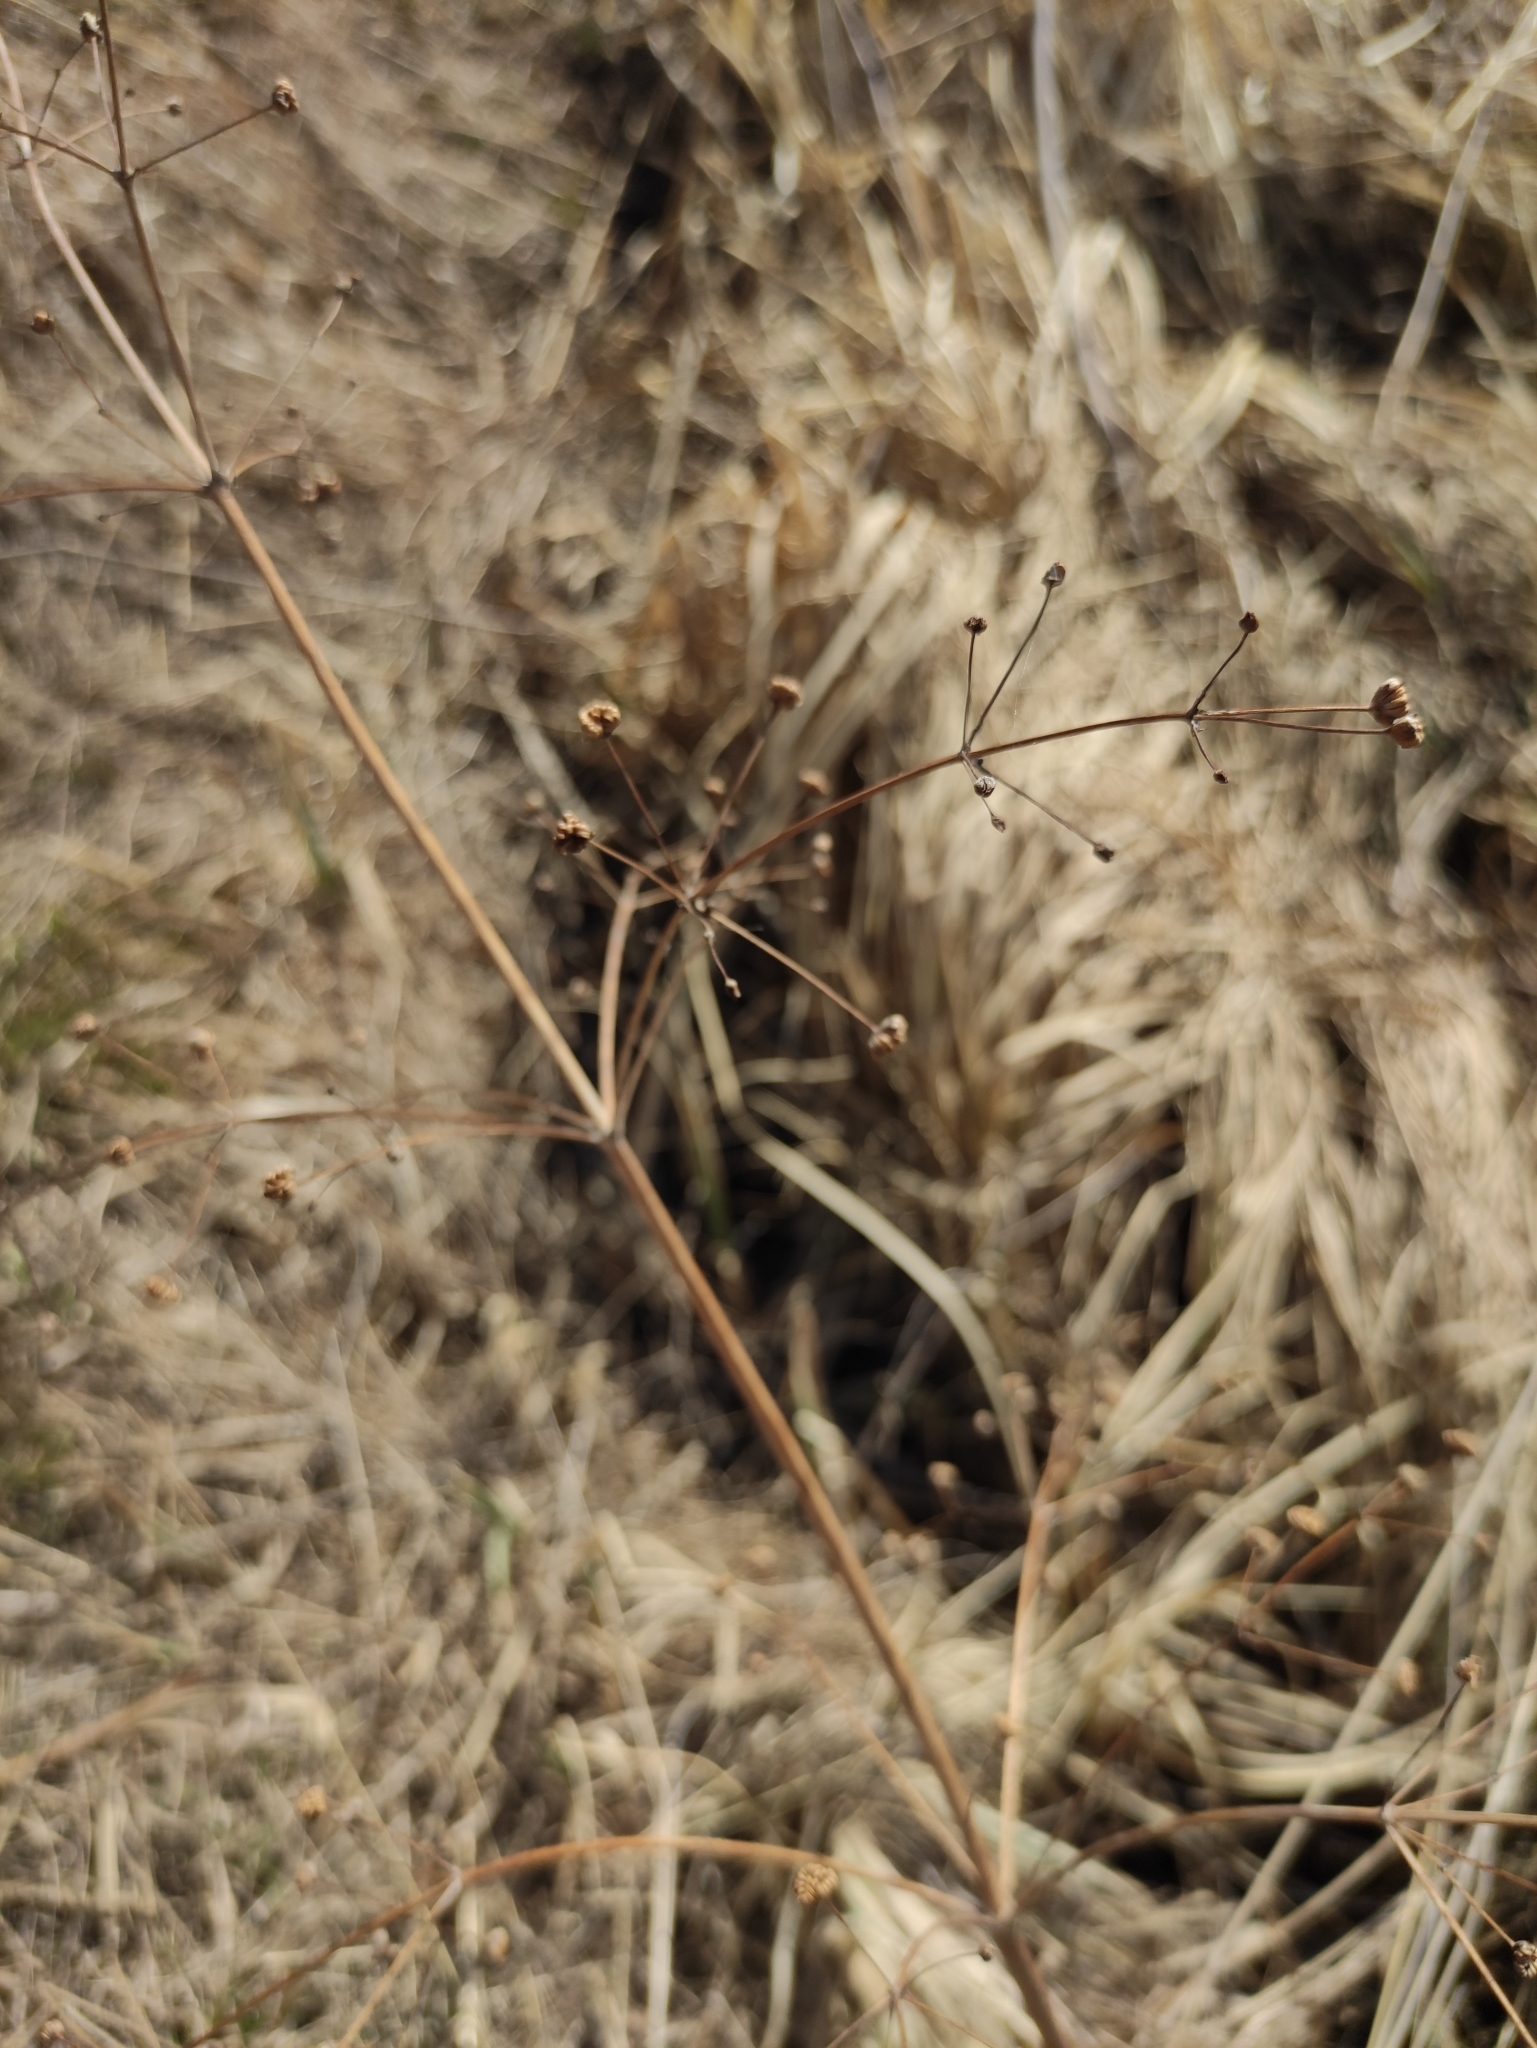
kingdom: Plantae
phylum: Tracheophyta
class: Liliopsida
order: Alismatales
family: Alismataceae
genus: Alisma
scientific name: Alisma plantago-aquatica
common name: Water-plantain
